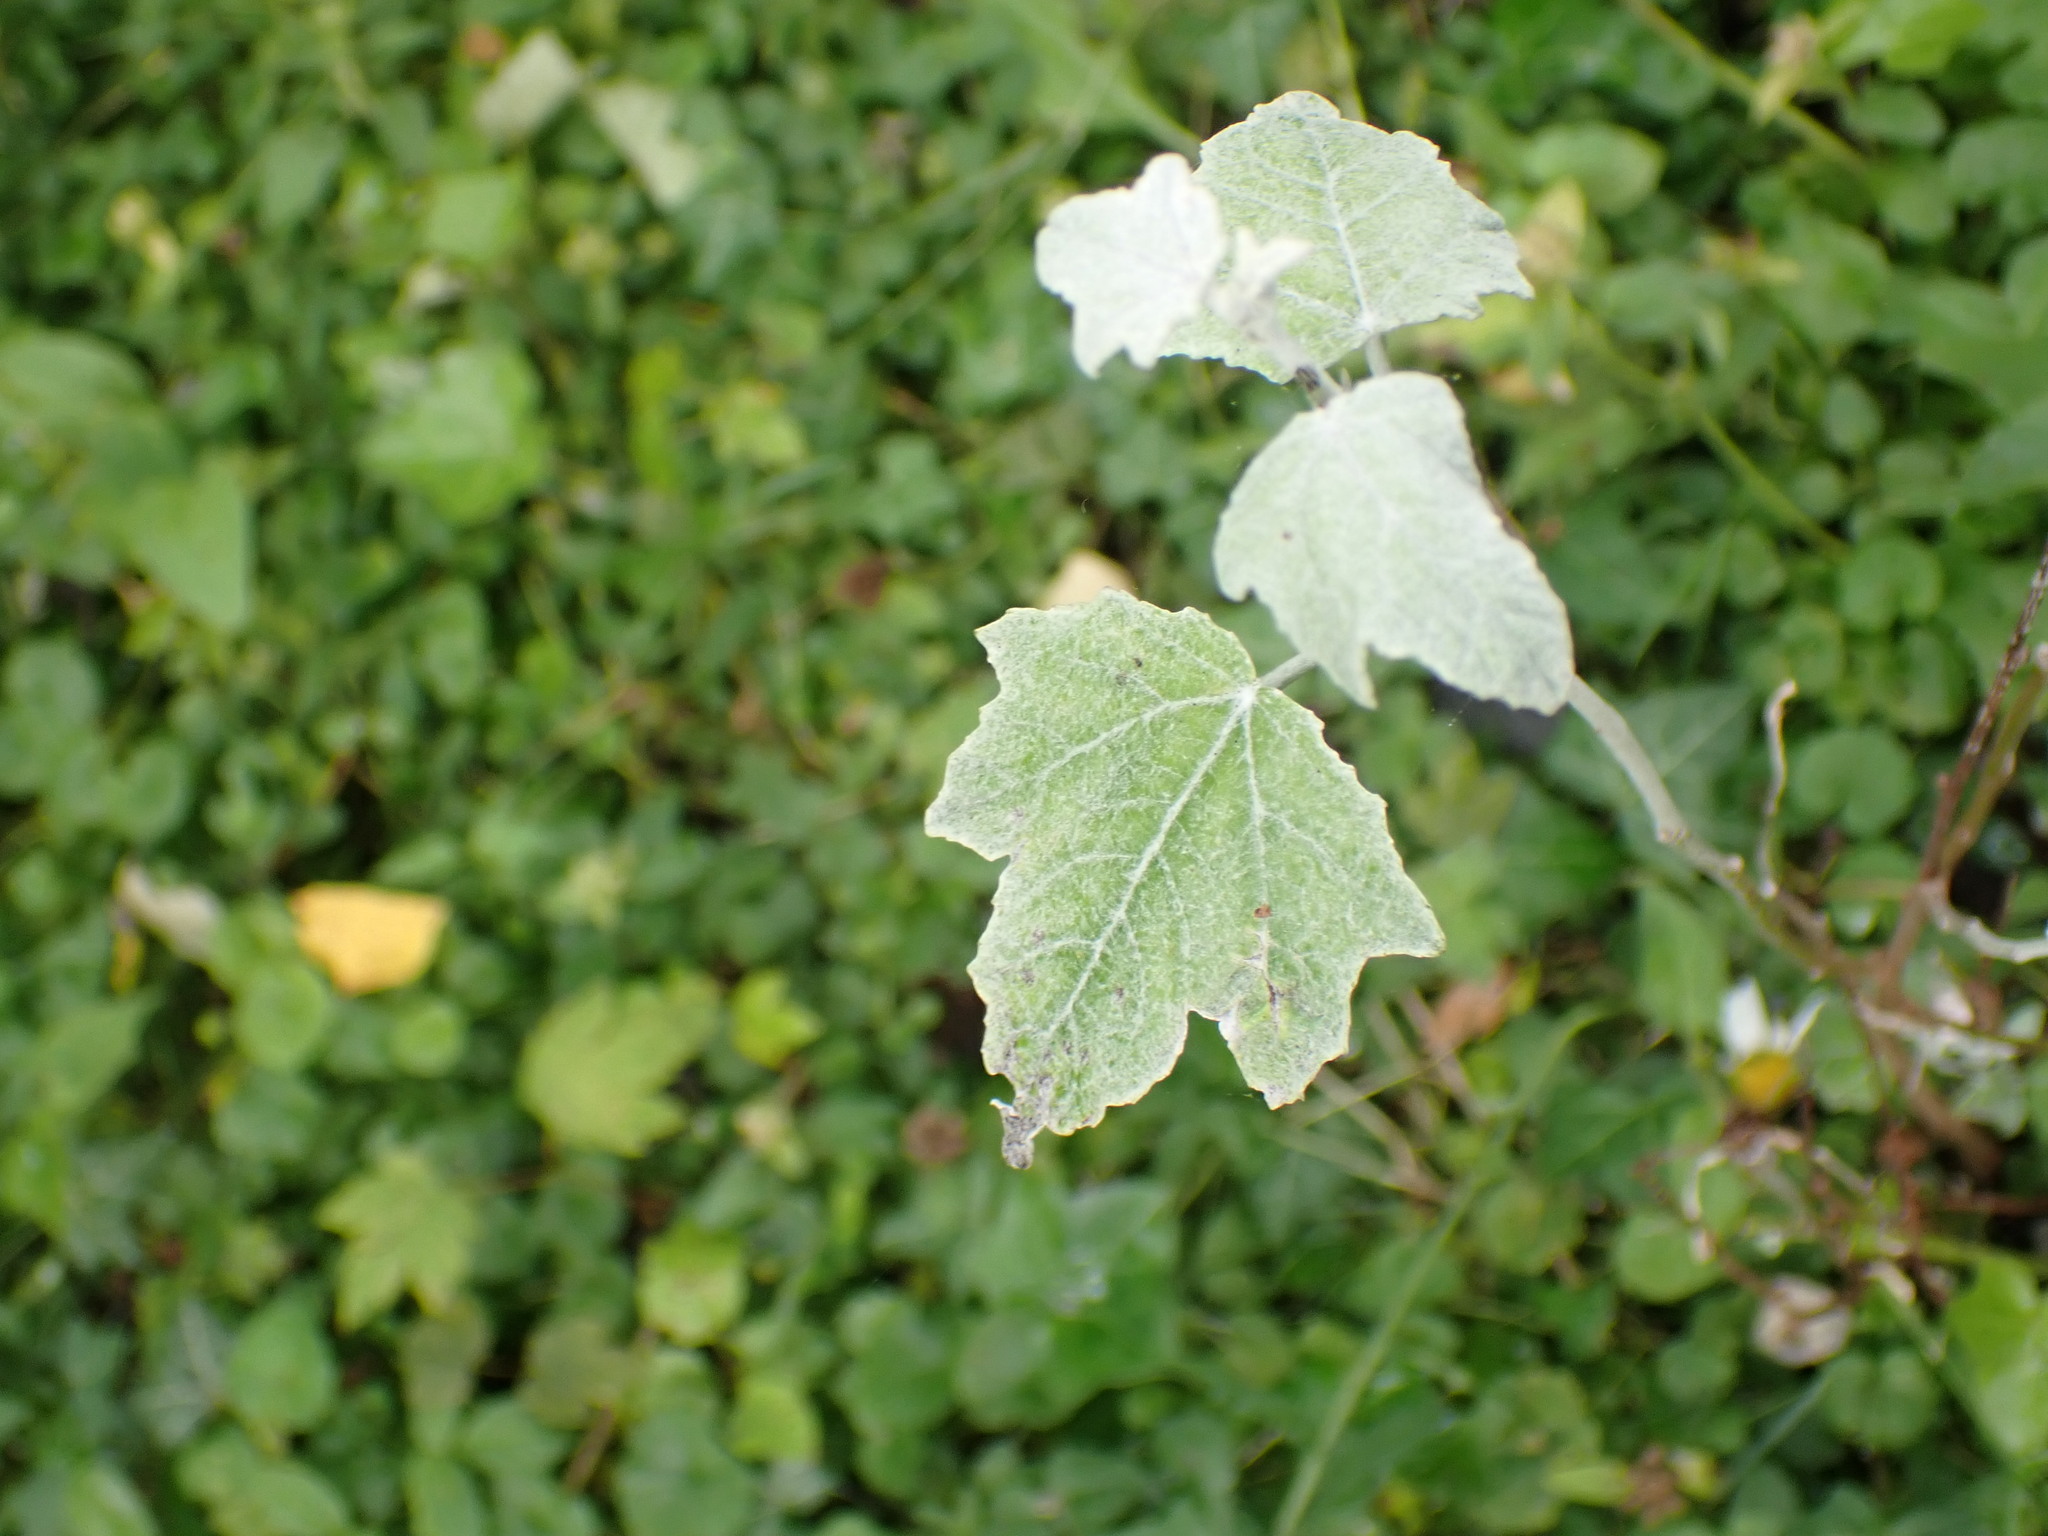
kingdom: Plantae
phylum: Tracheophyta
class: Magnoliopsida
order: Malpighiales
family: Salicaceae
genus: Populus
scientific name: Populus alba
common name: White poplar
